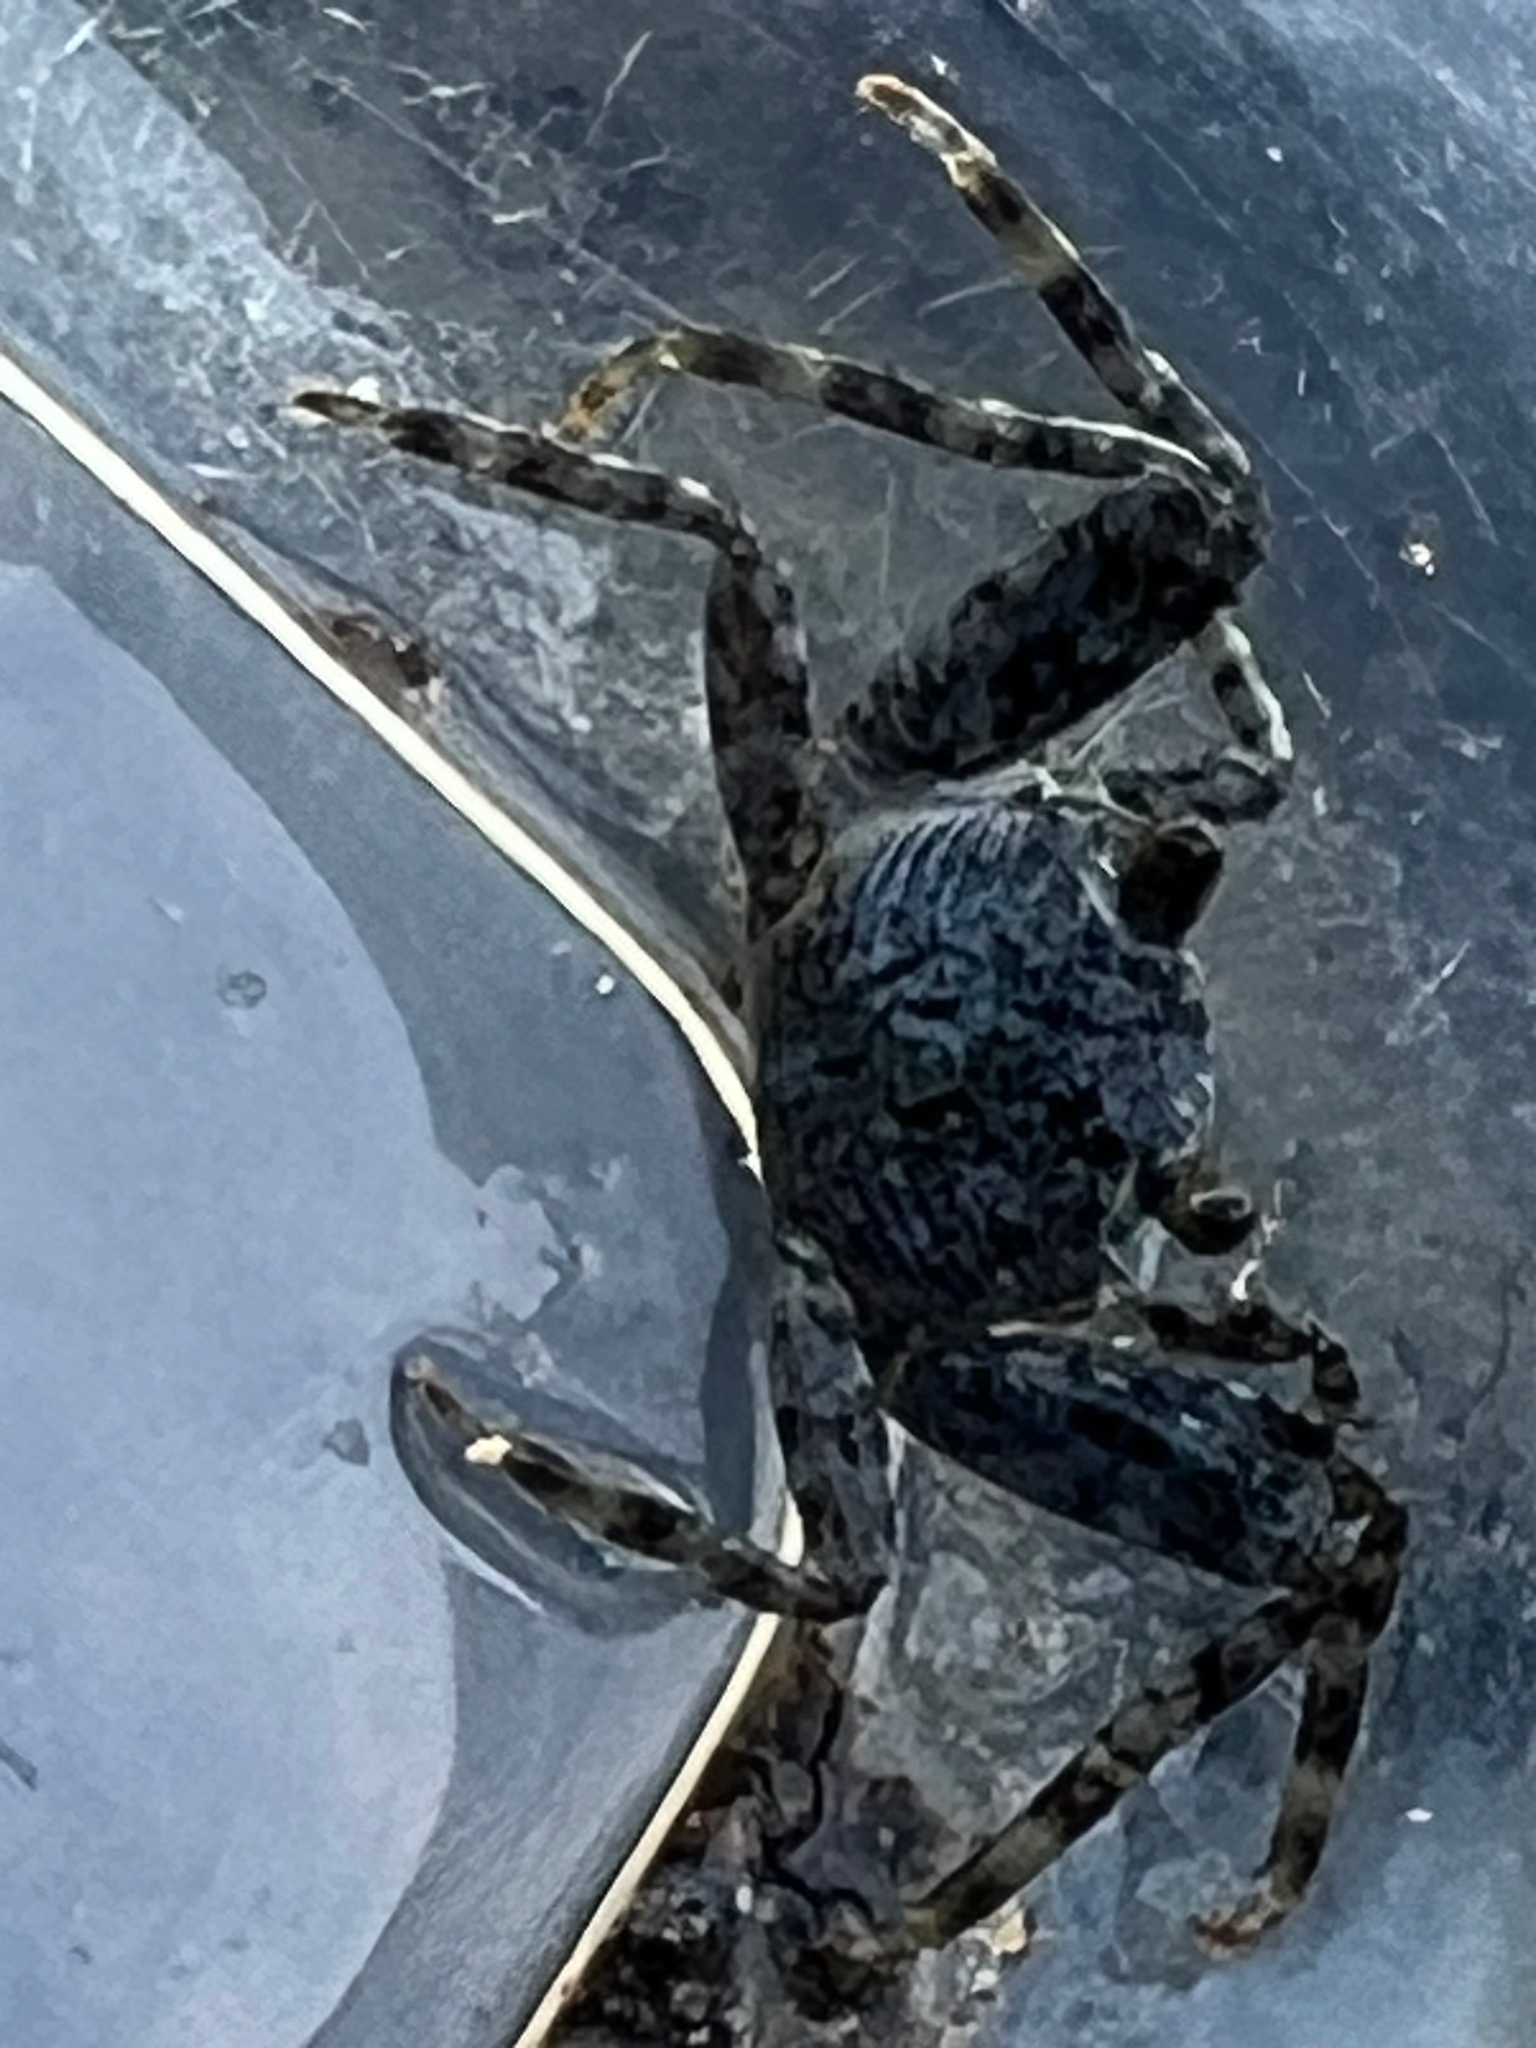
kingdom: Animalia
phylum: Arthropoda
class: Malacostraca
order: Decapoda
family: Grapsidae
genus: Grapsus
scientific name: Grapsus grapsus
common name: Sally lightfoot
